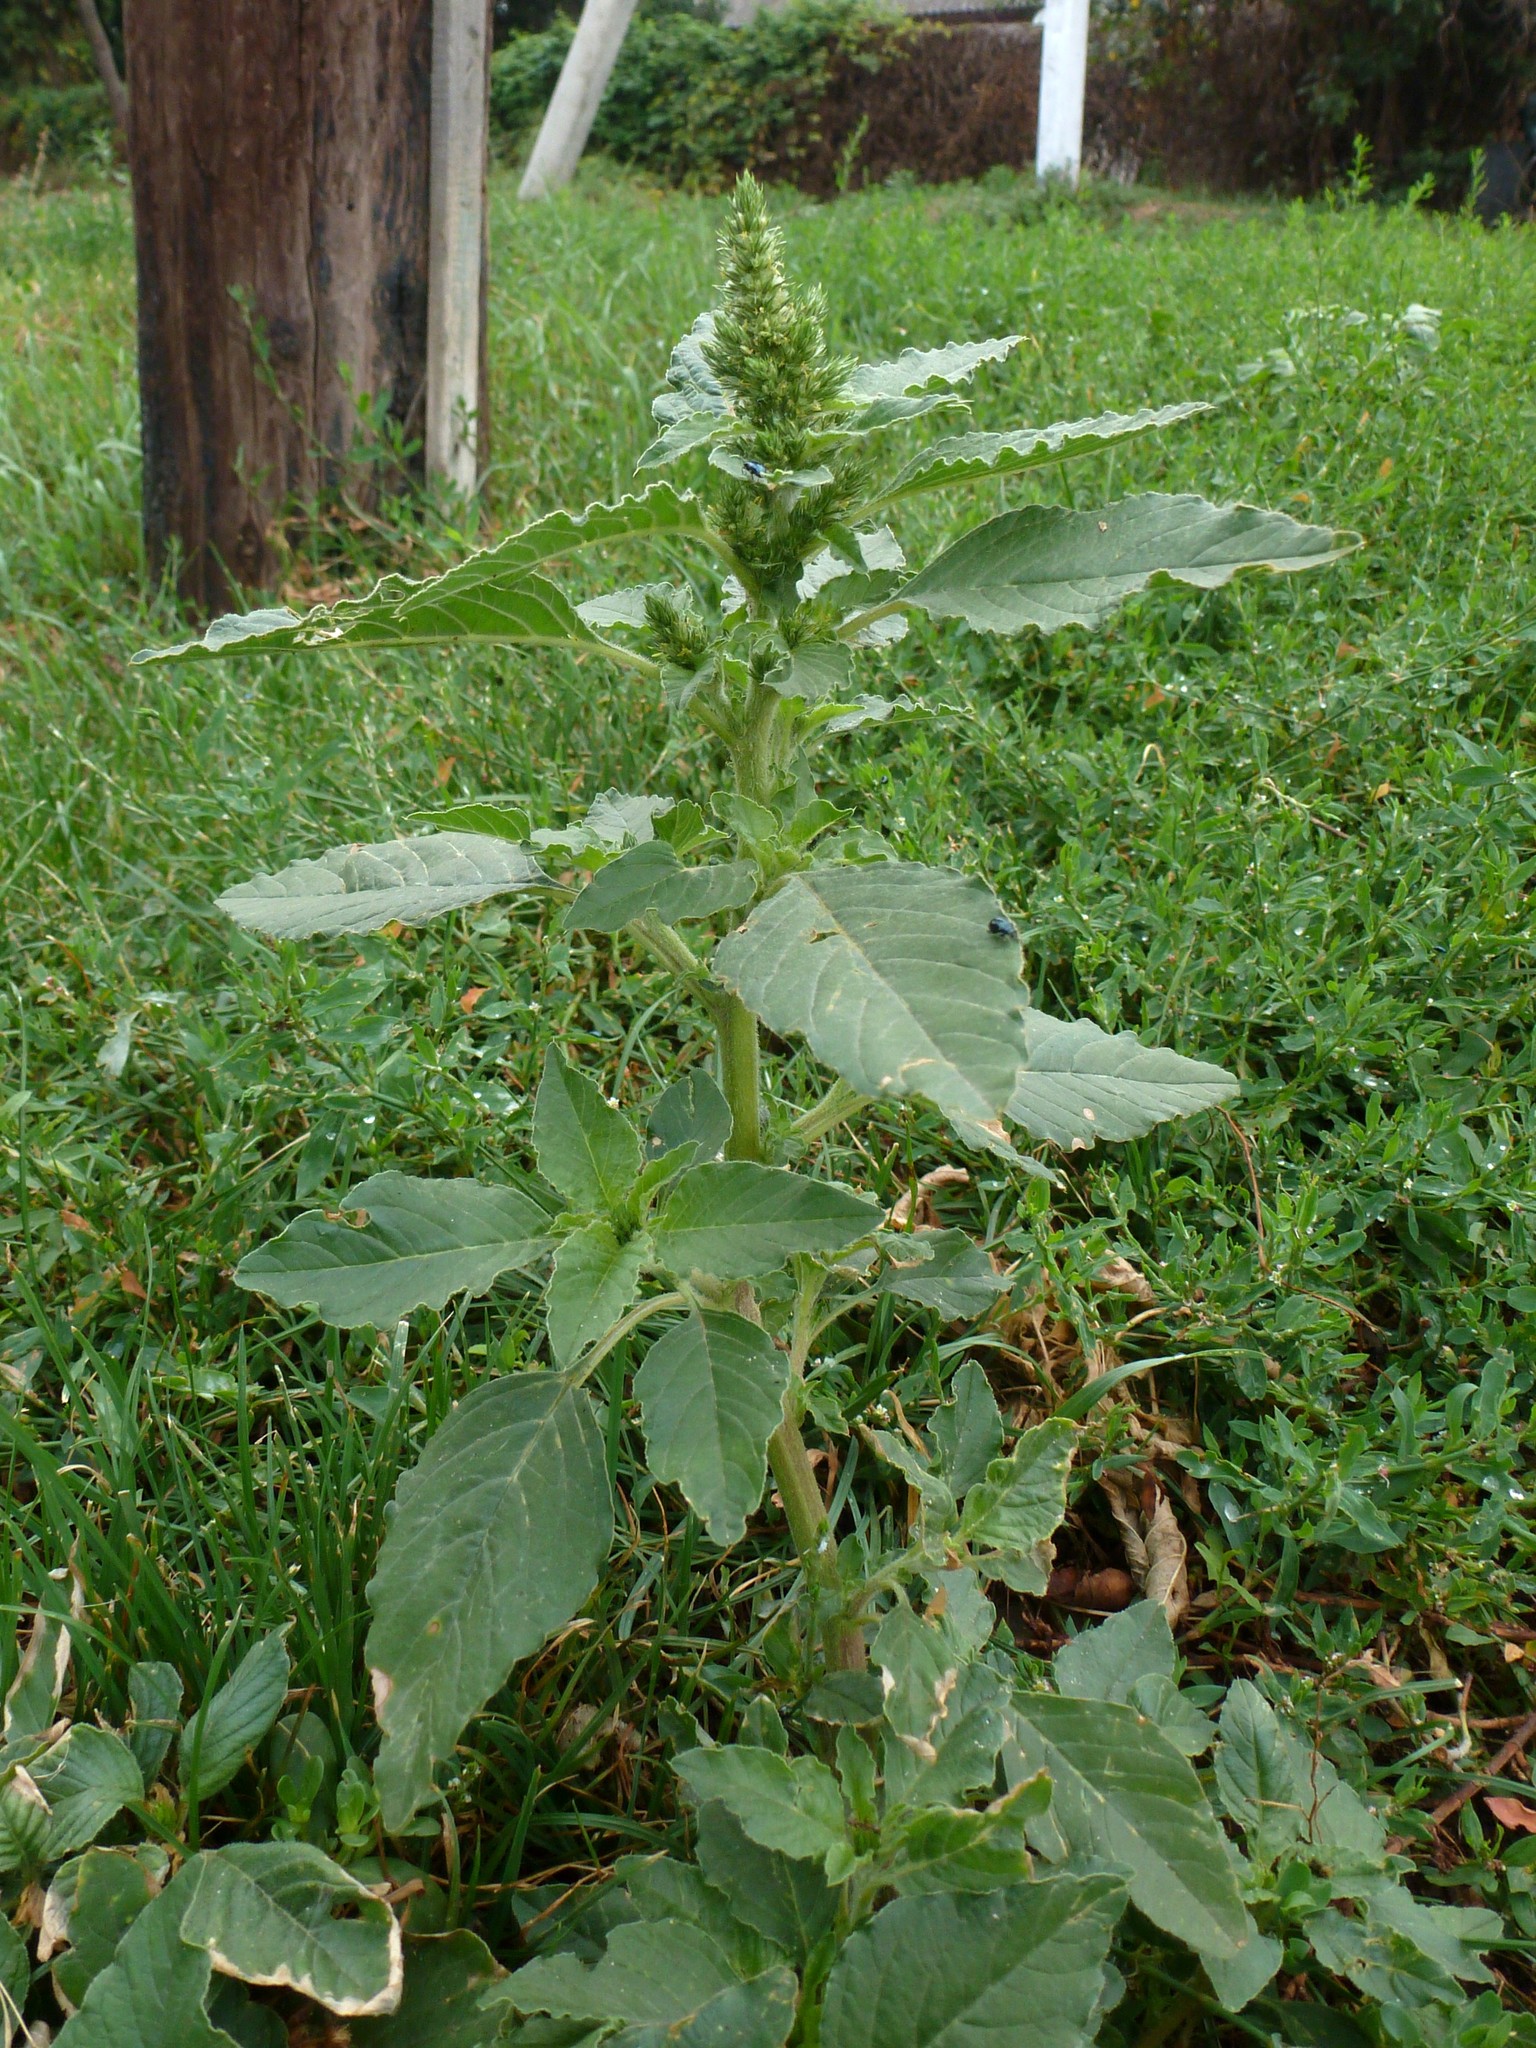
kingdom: Plantae
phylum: Tracheophyta
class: Magnoliopsida
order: Caryophyllales
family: Amaranthaceae
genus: Amaranthus
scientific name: Amaranthus retroflexus
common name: Redroot amaranth
